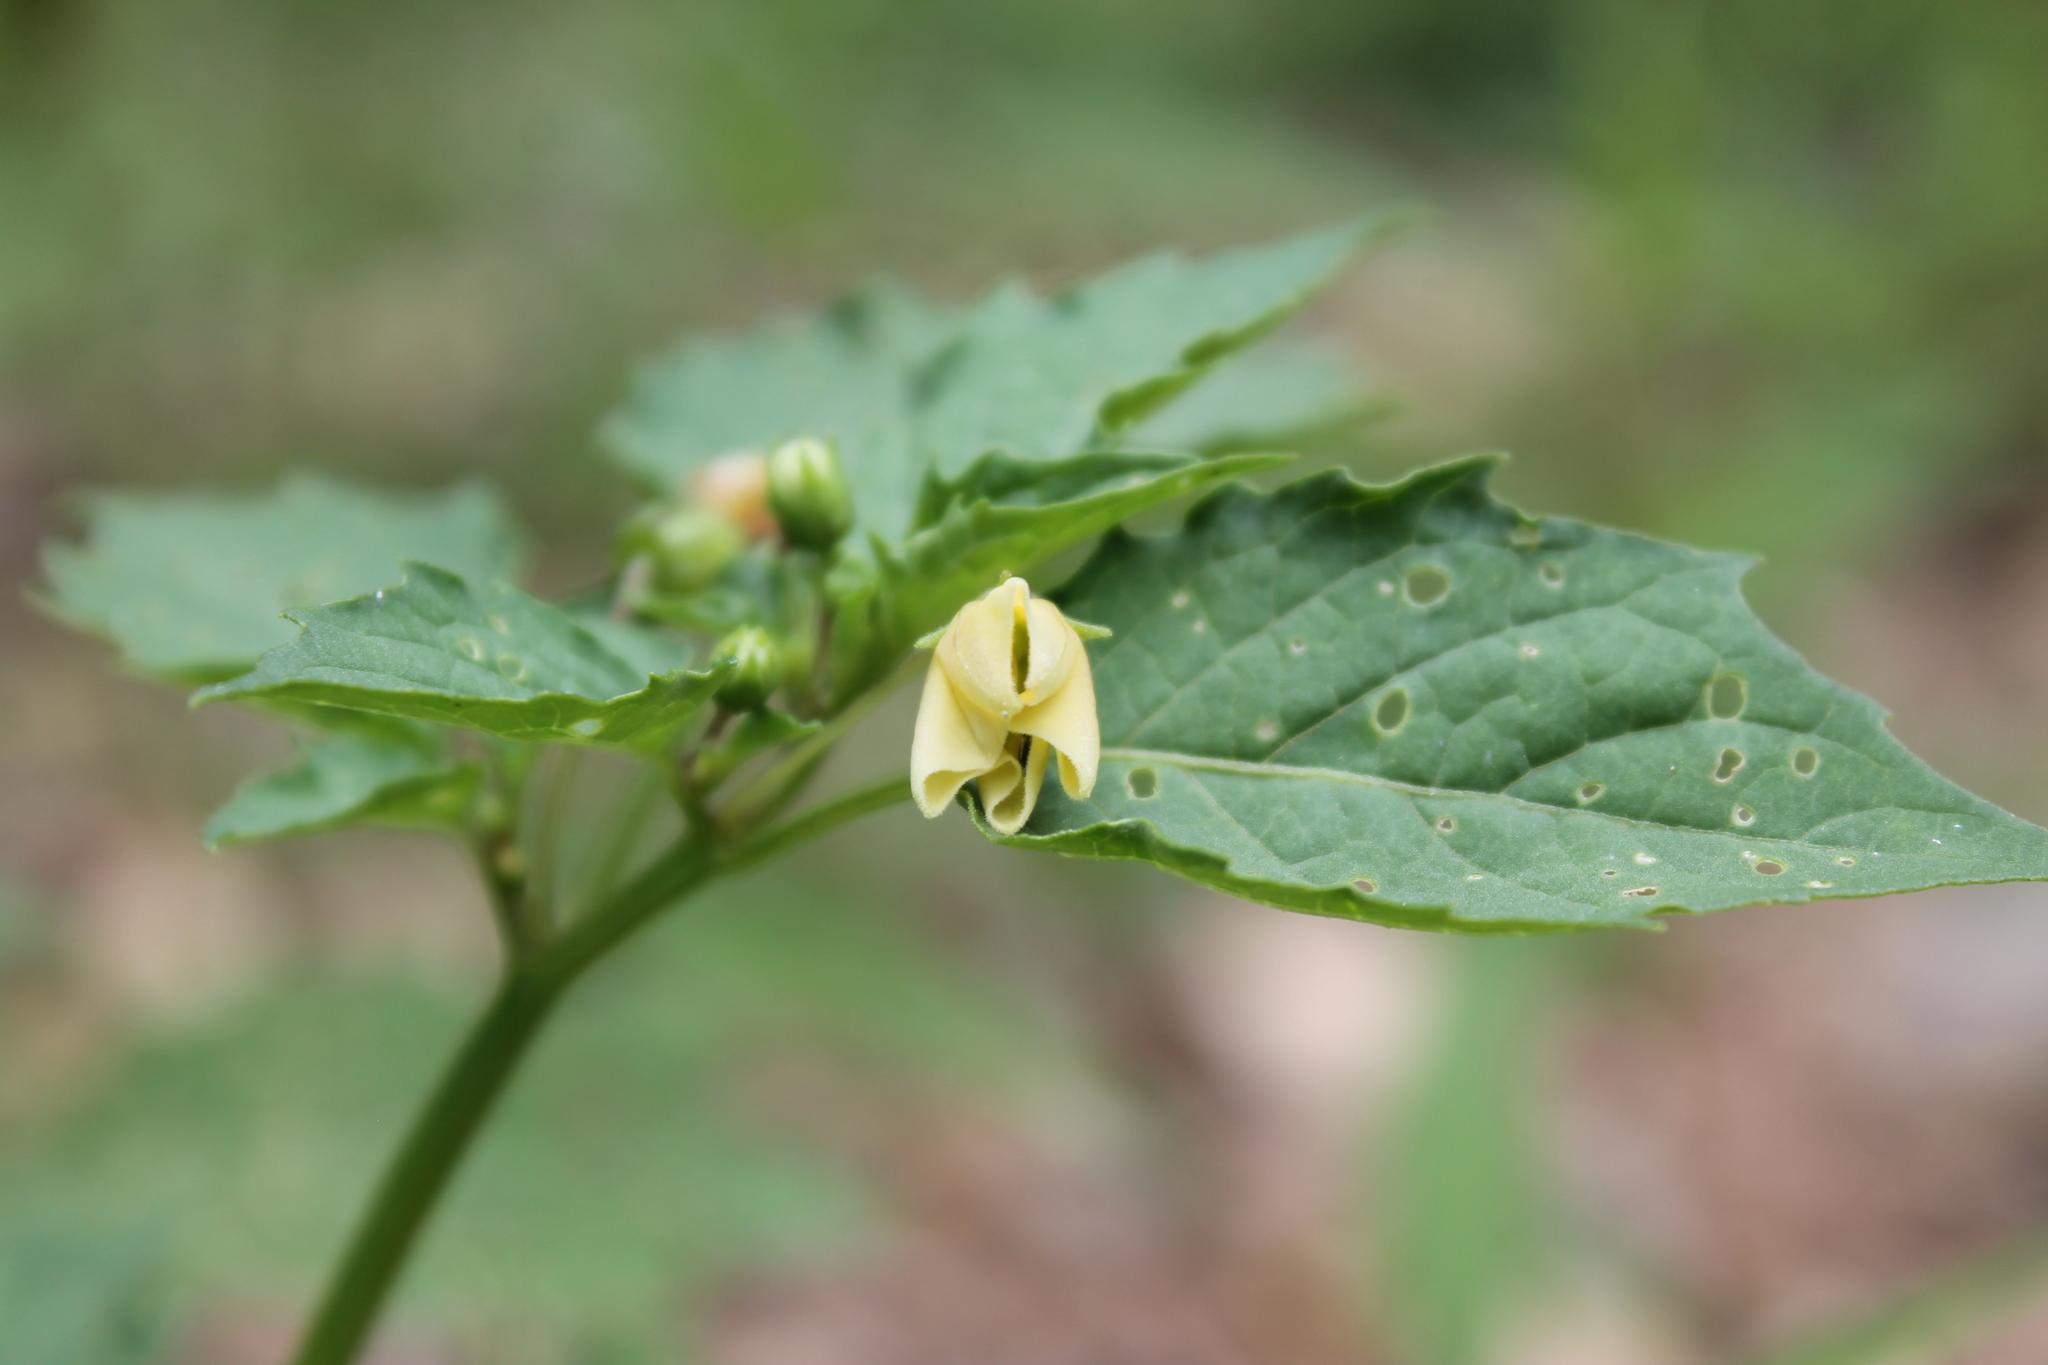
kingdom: Plantae
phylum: Tracheophyta
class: Magnoliopsida
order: Solanales
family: Solanaceae
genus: Physalis
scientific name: Physalis angulata
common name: Angular winter-cherry
